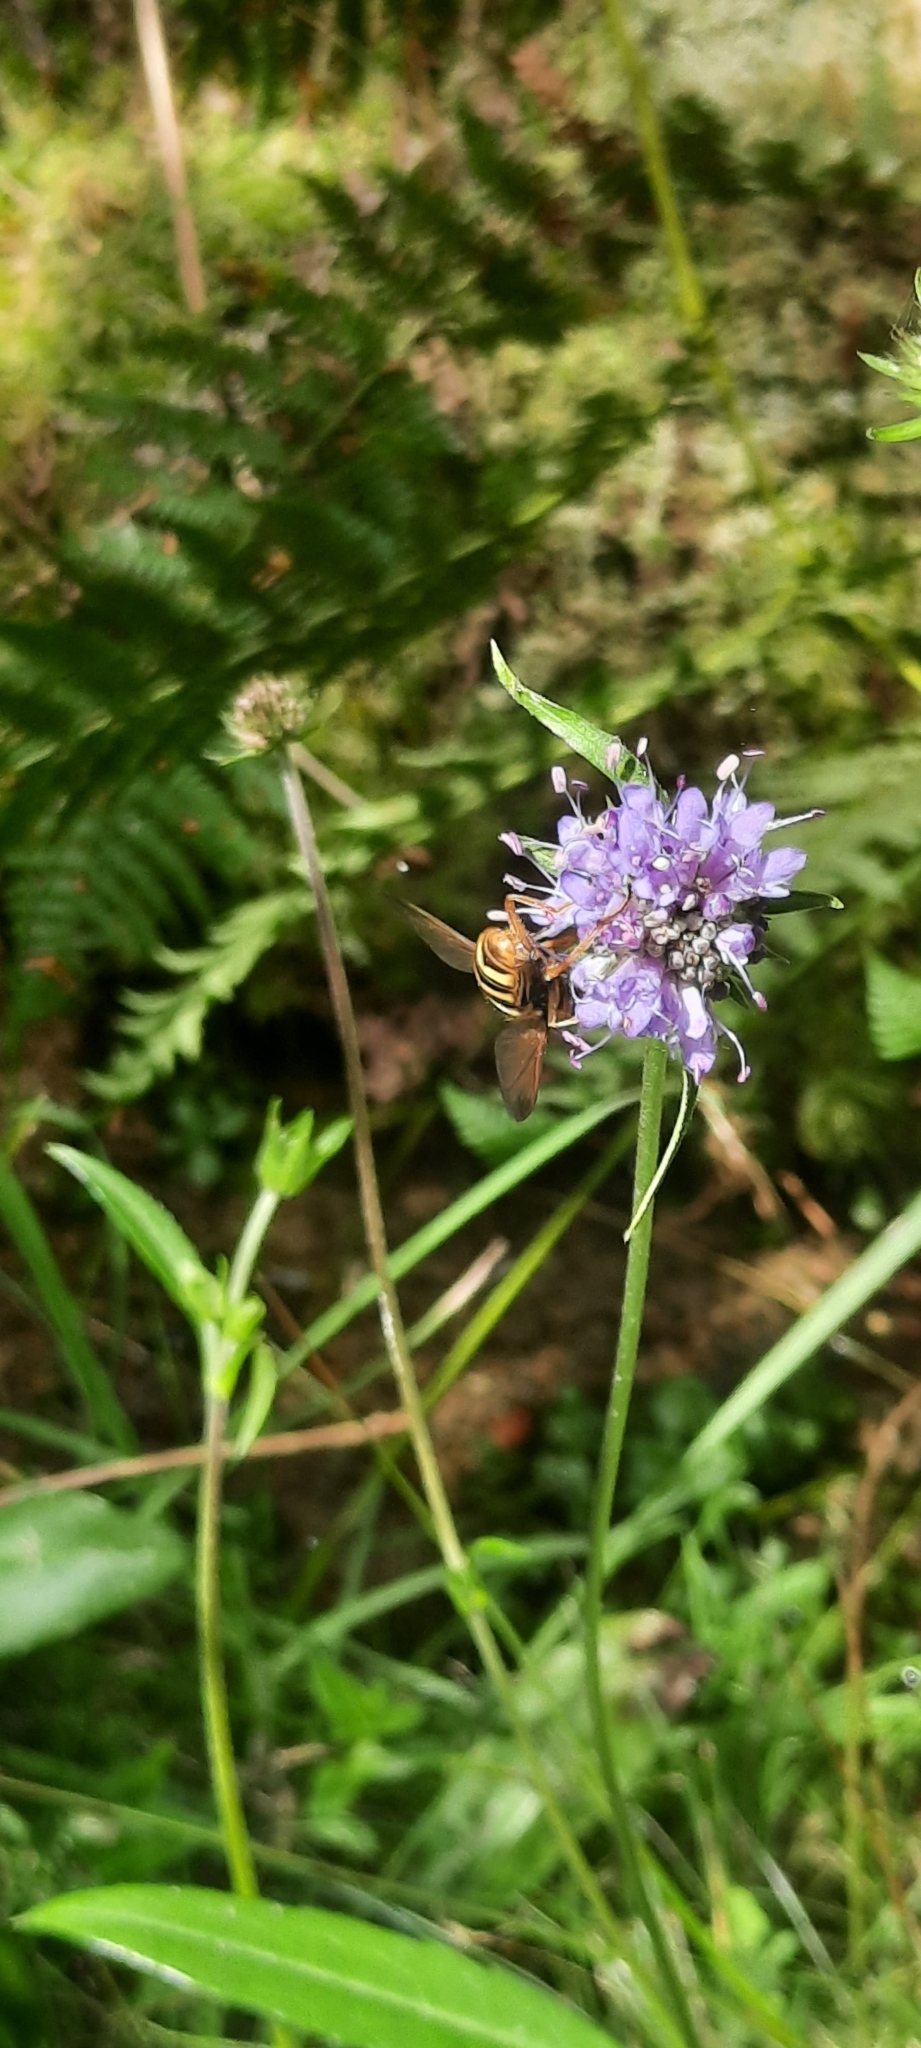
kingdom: Plantae
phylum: Tracheophyta
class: Magnoliopsida
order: Dipsacales
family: Caprifoliaceae
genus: Succisa
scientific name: Succisa pratensis
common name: Devil's-bit
